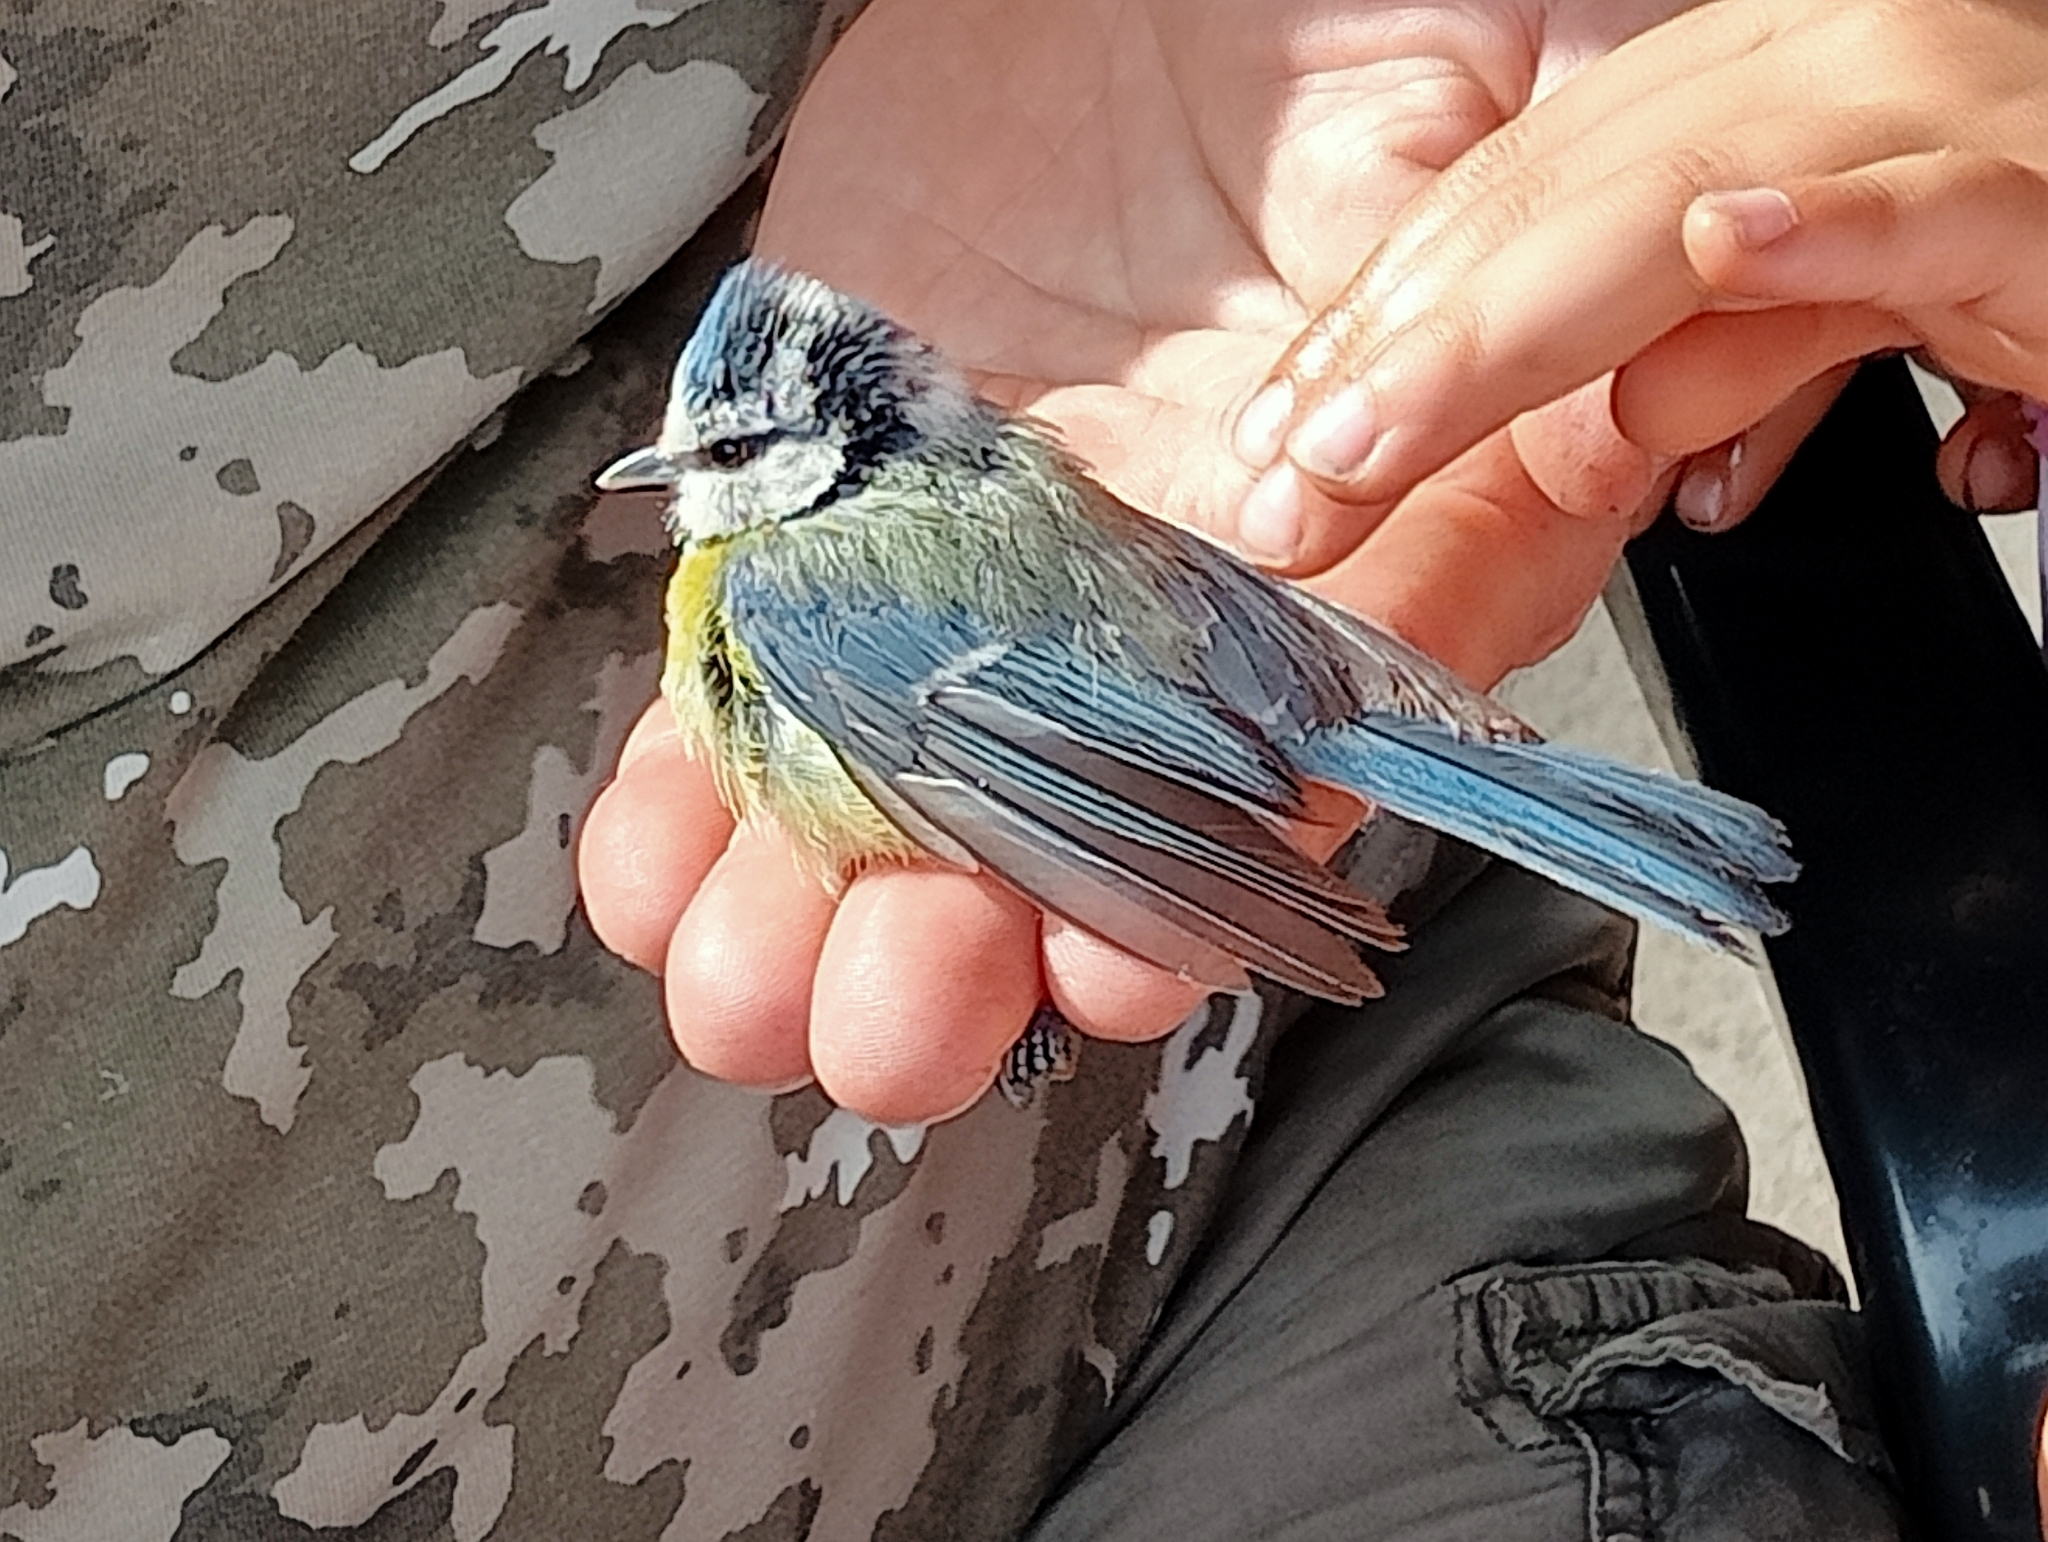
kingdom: Animalia
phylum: Chordata
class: Aves
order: Passeriformes
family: Paridae
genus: Cyanistes
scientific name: Cyanistes caeruleus
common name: Eurasian blue tit
